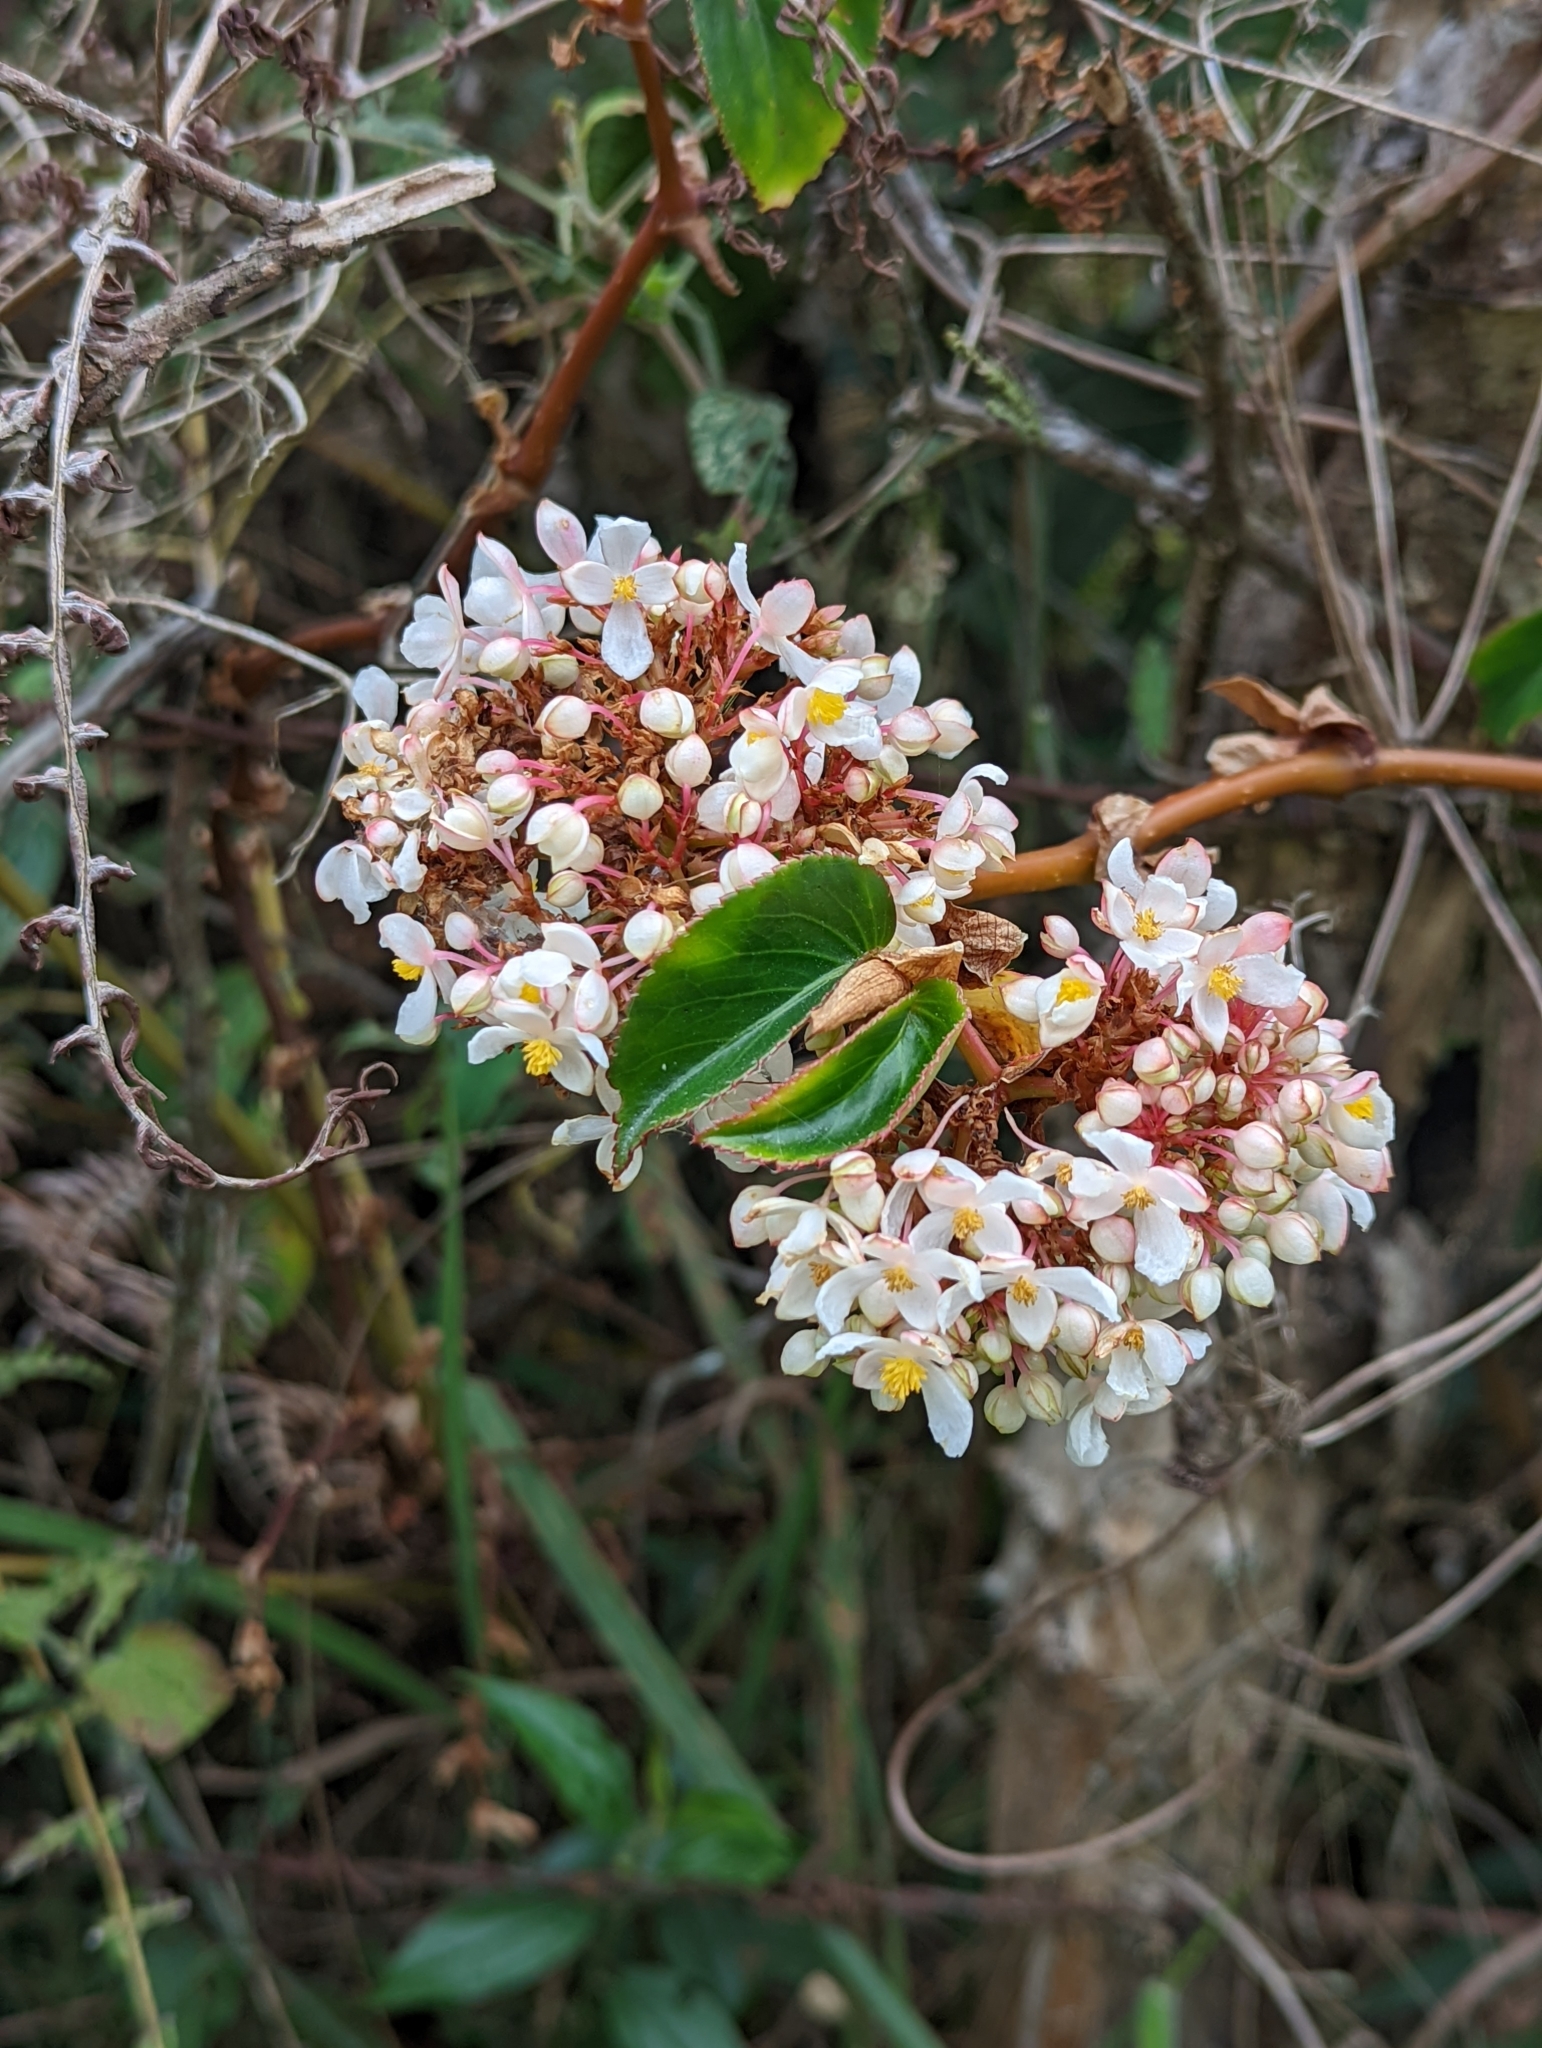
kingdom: Plantae
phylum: Tracheophyta
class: Magnoliopsida
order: Cucurbitales
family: Begoniaceae
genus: Begonia
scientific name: Begonia meridensis
